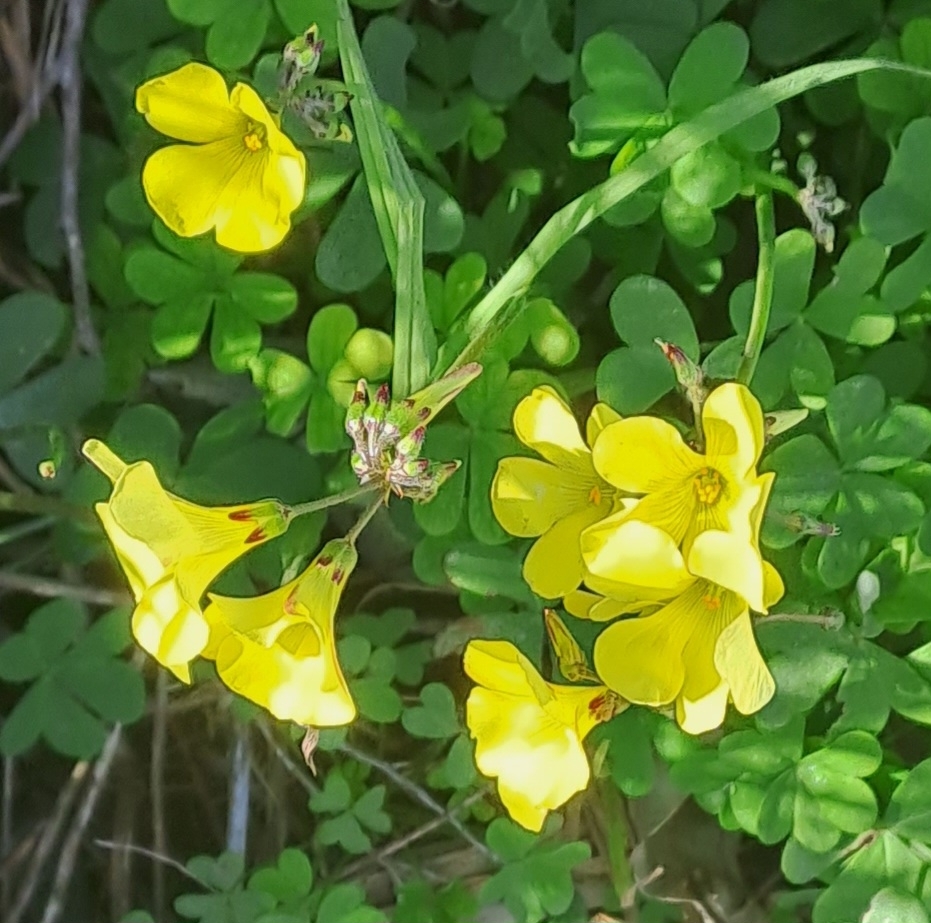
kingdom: Plantae
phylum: Tracheophyta
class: Magnoliopsida
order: Oxalidales
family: Oxalidaceae
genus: Oxalis
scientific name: Oxalis pes-caprae
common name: Bermuda-buttercup
